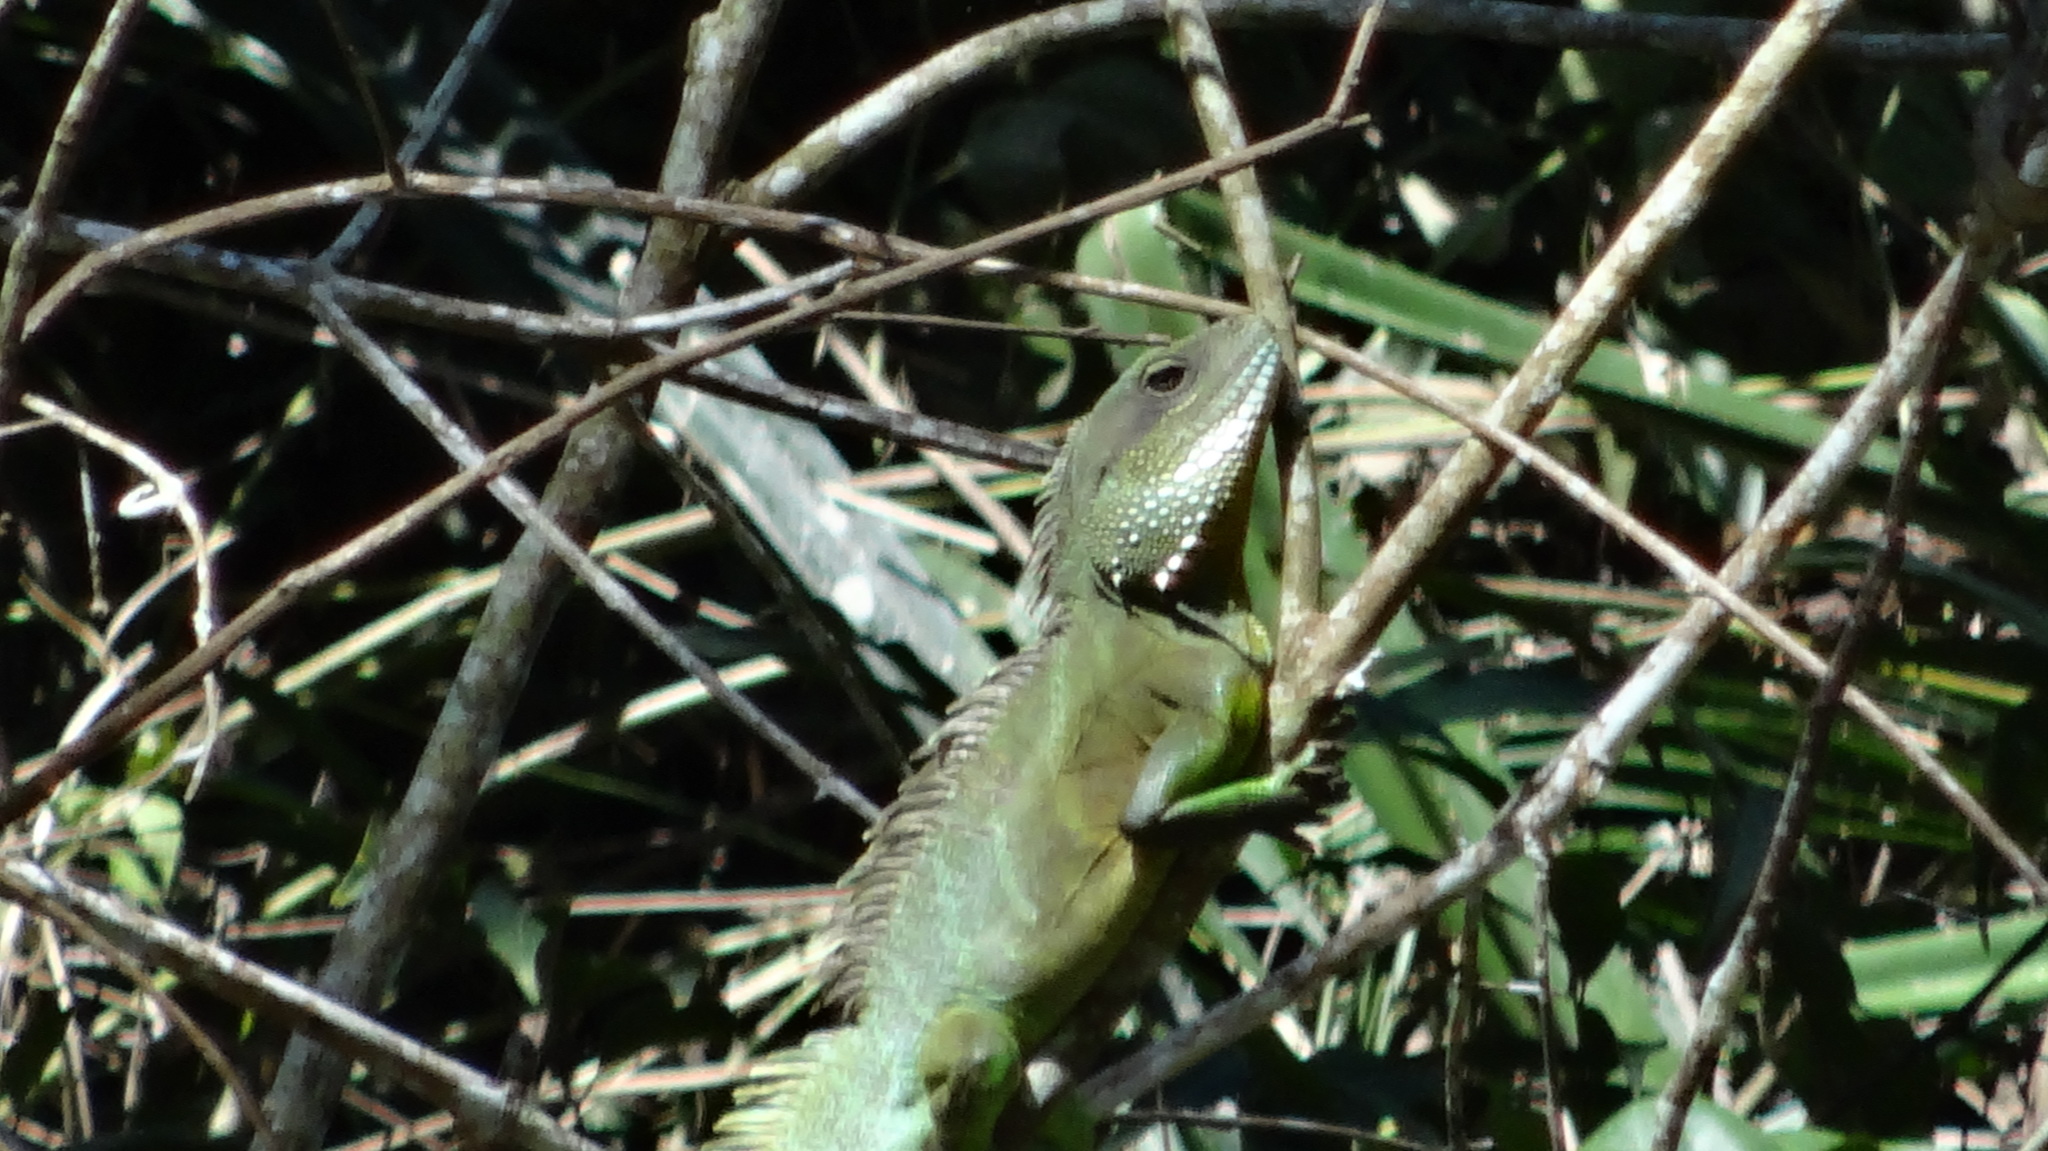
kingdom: Animalia
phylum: Chordata
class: Squamata
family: Agamidae
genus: Physignathus
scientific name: Physignathus cocincinus
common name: Asian water dragon
